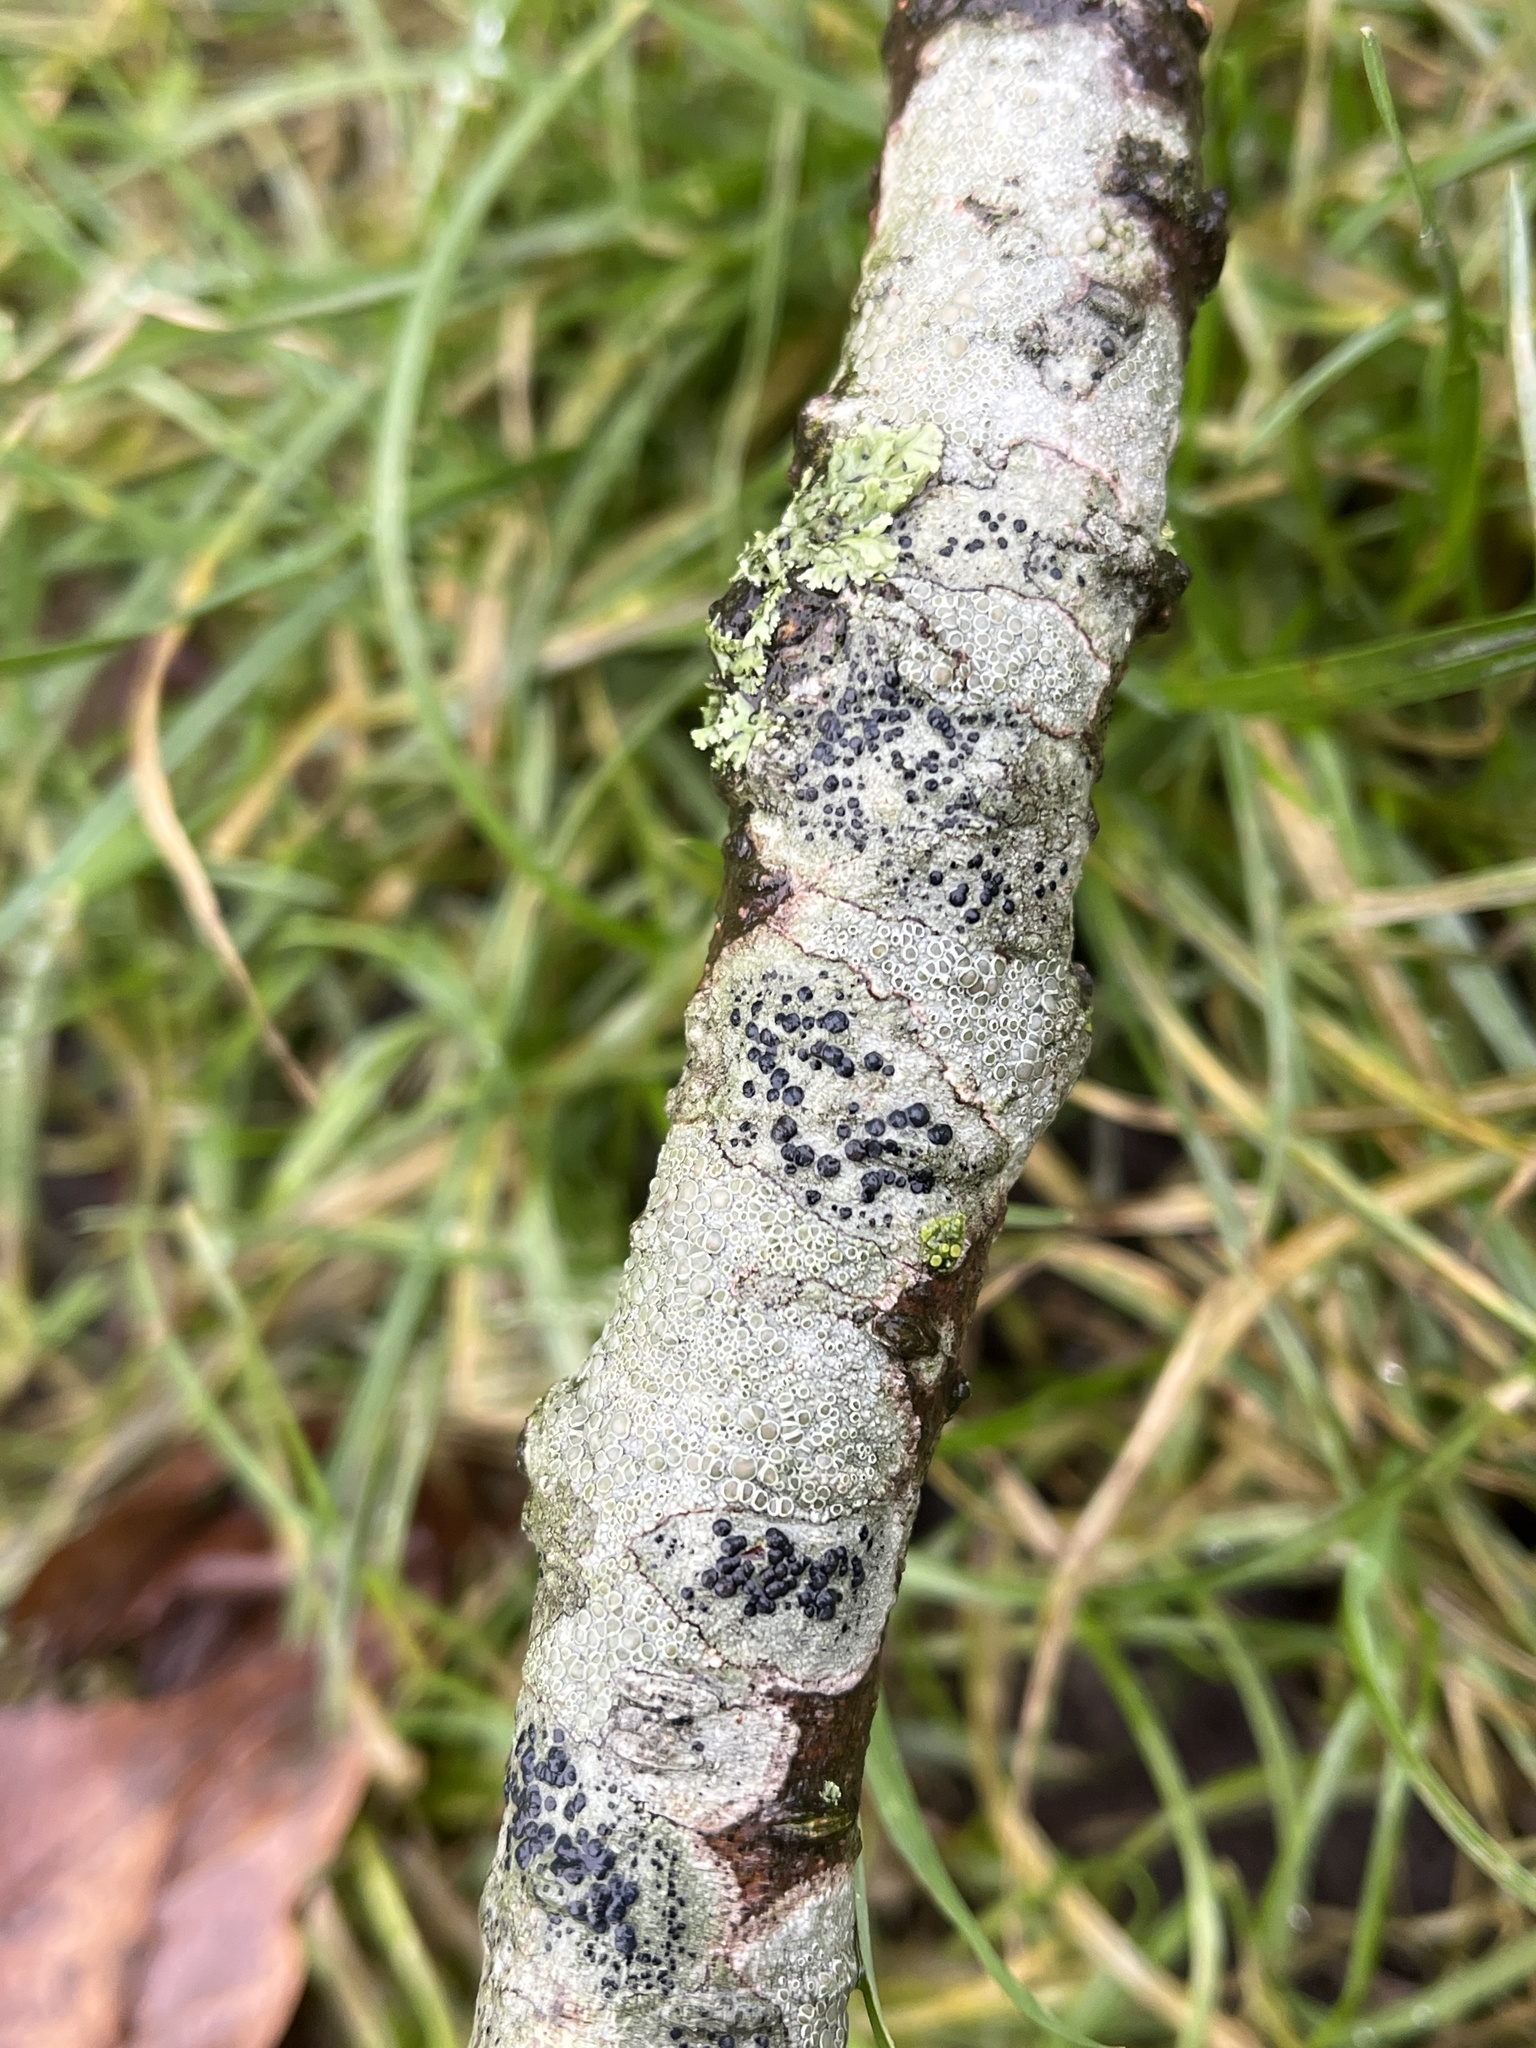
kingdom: Fungi
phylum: Ascomycota
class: Lecanoromycetes
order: Lecanorales
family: Lecanoraceae
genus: Lecidella
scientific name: Lecidella elaeochroma
